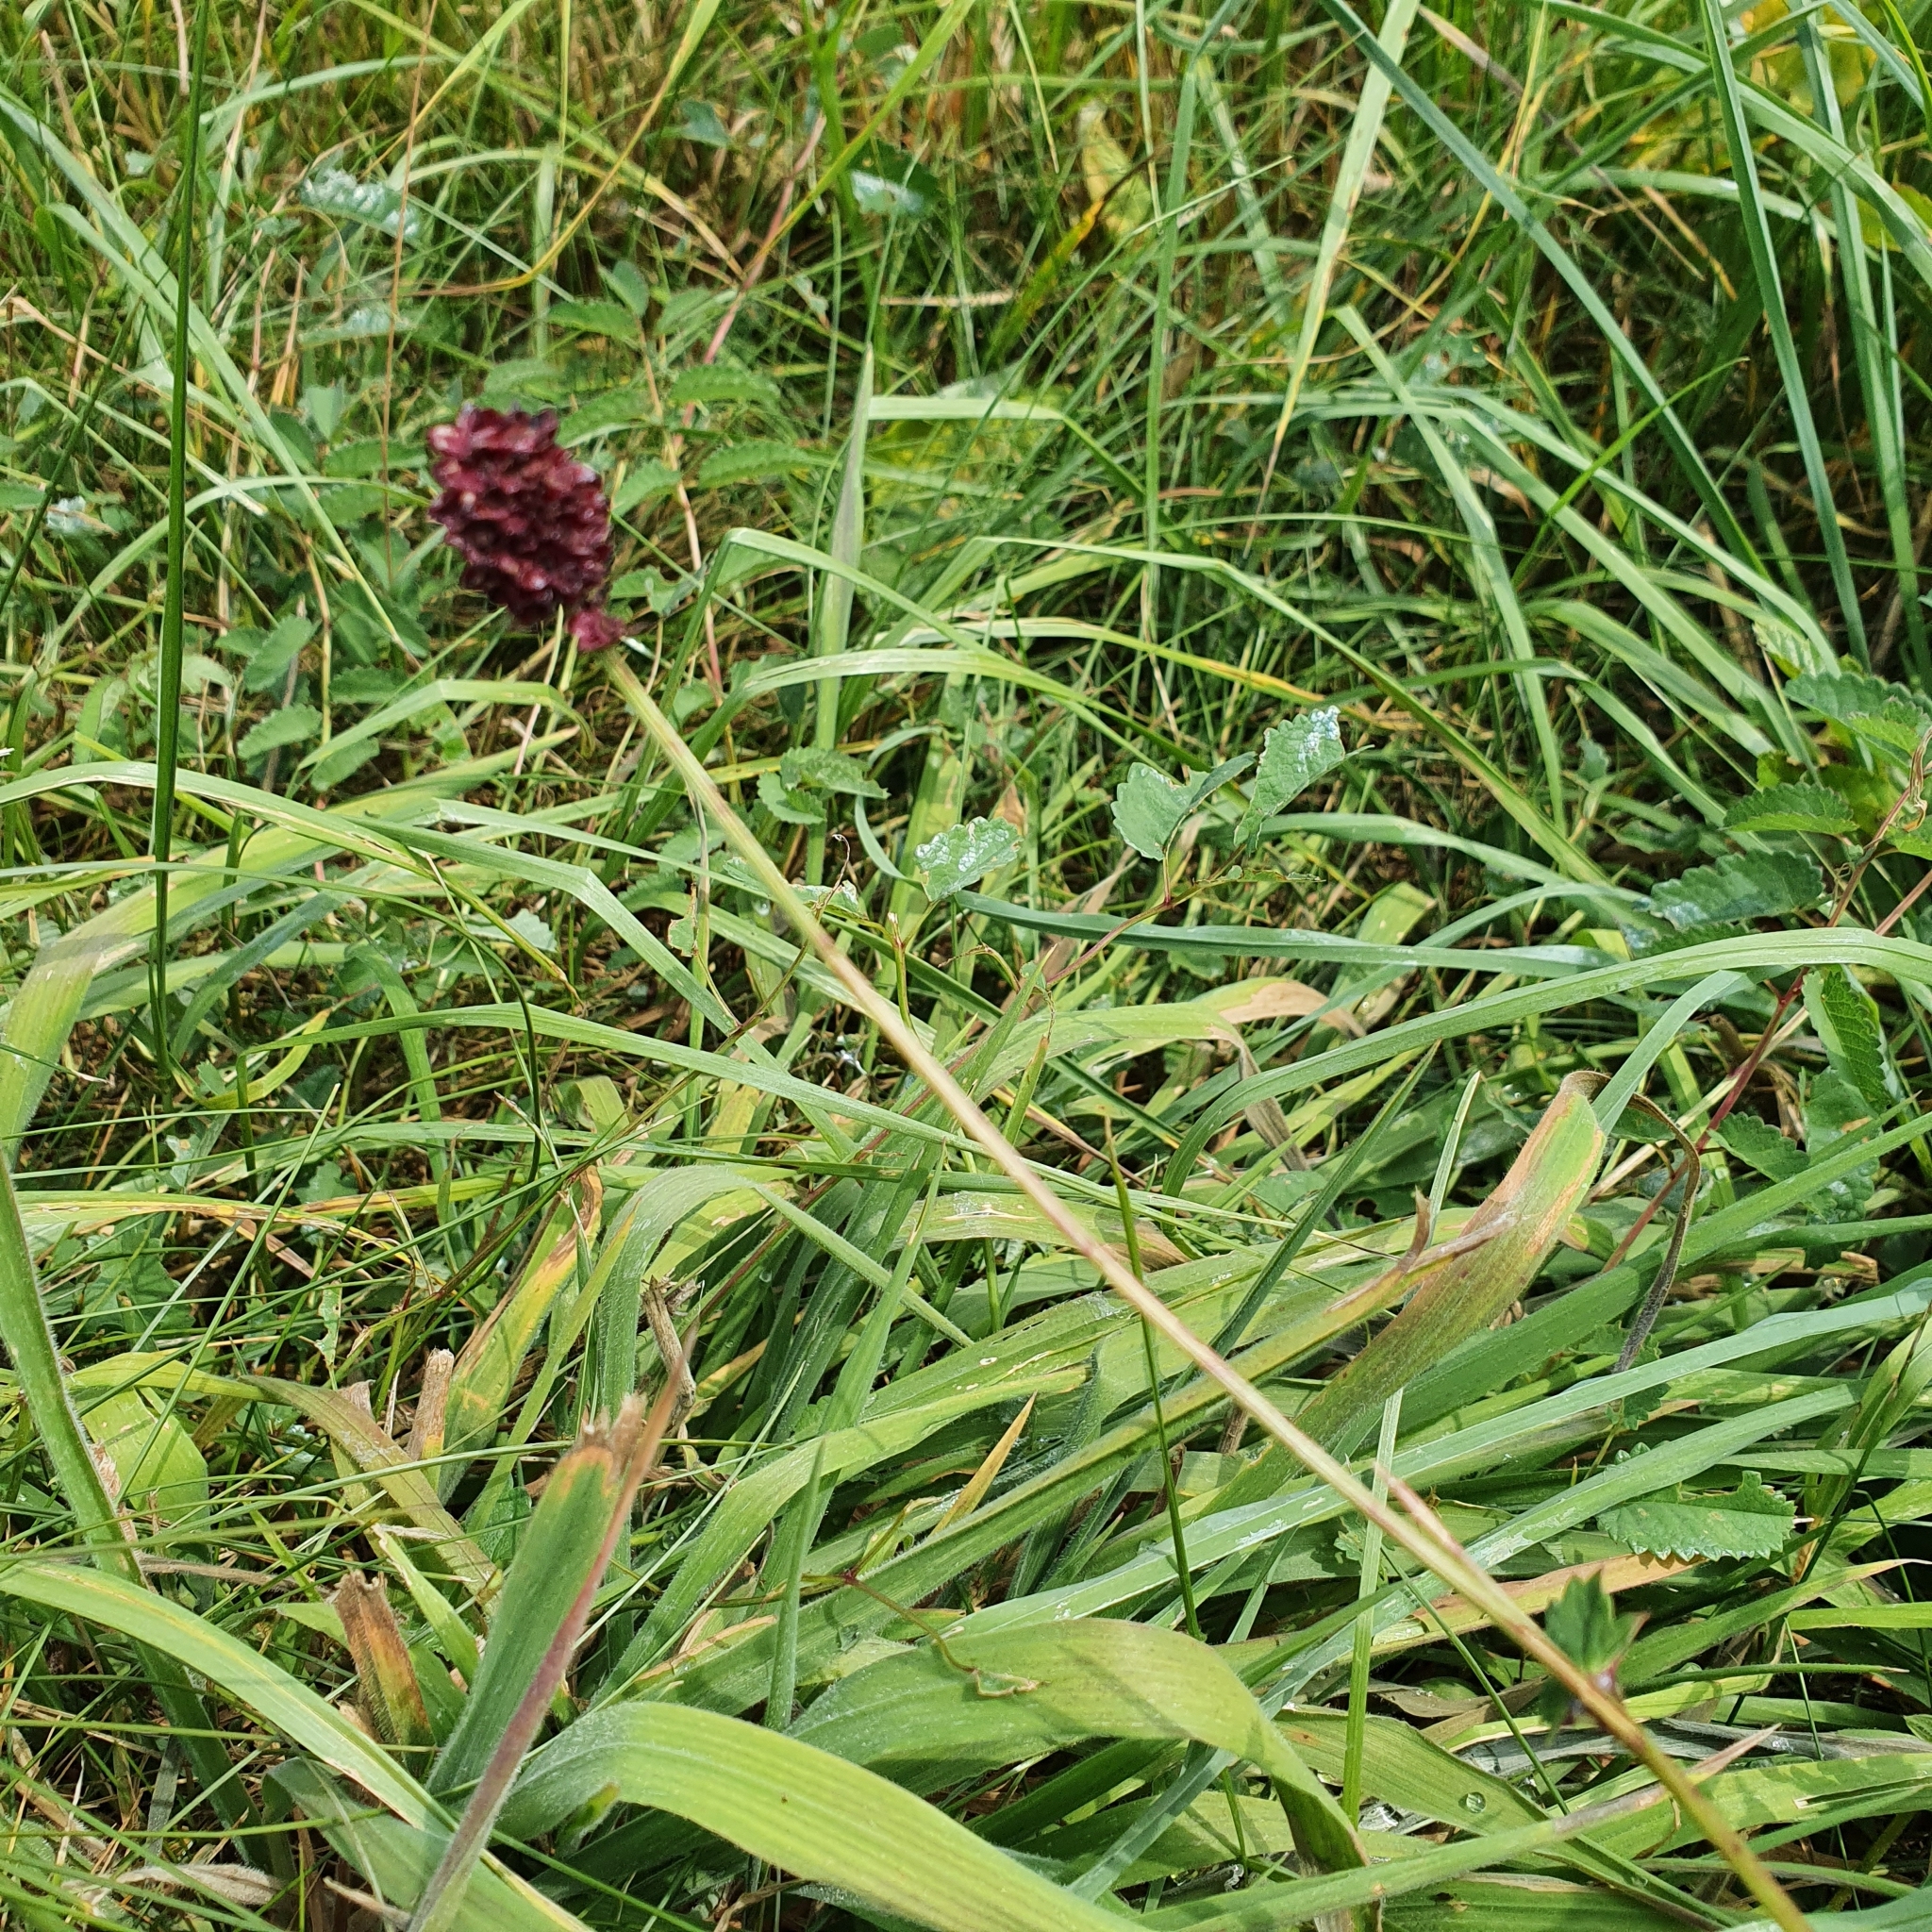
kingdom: Plantae
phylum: Tracheophyta
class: Magnoliopsida
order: Rosales
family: Rosaceae
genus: Sanguisorba
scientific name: Sanguisorba officinalis
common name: Great burnet
